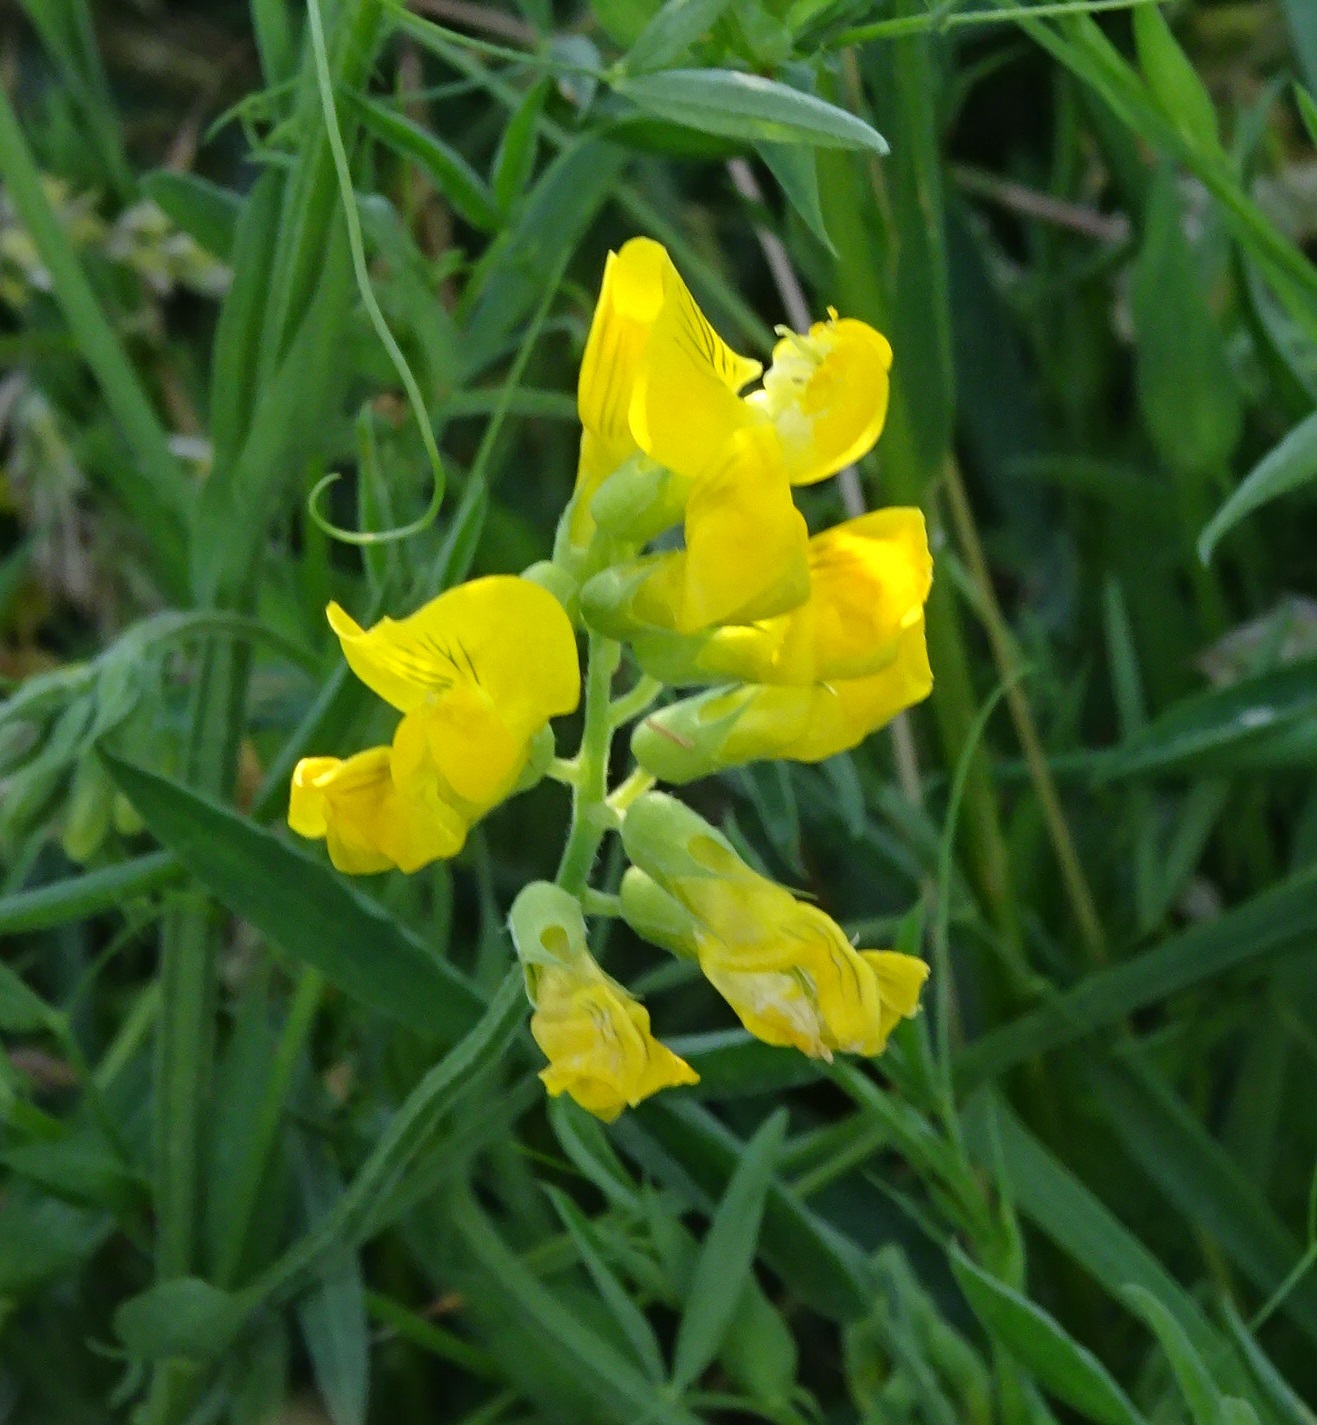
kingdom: Plantae
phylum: Tracheophyta
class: Magnoliopsida
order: Fabales
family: Fabaceae
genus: Lathyrus
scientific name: Lathyrus pratensis
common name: Meadow vetchling
